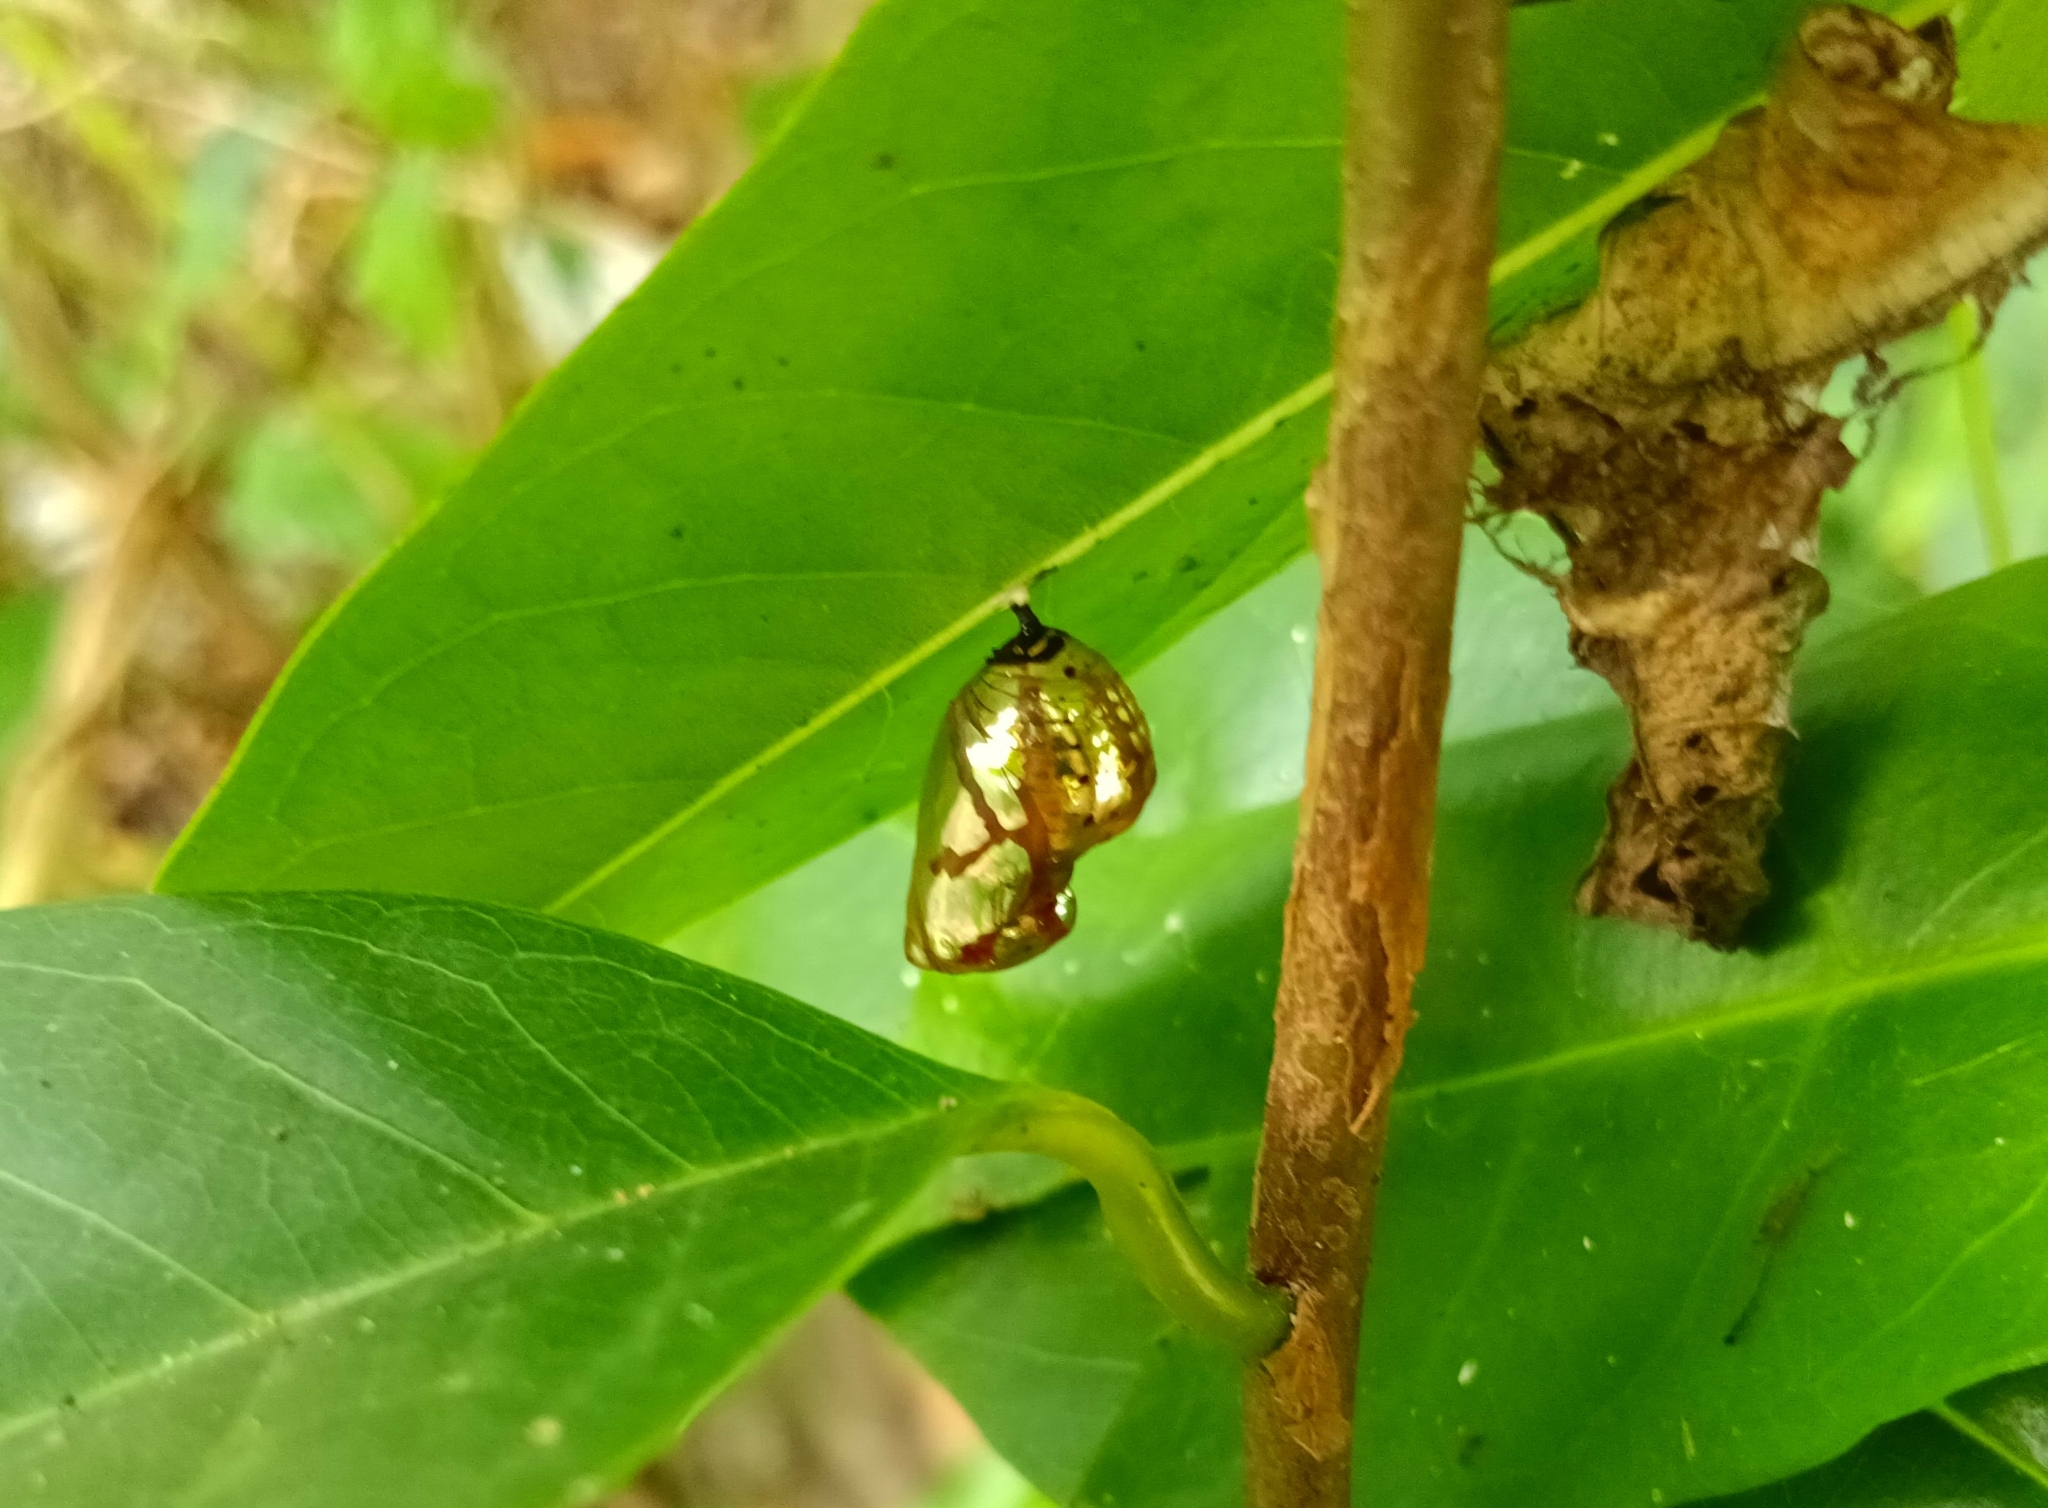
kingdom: Animalia
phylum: Arthropoda
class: Insecta
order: Lepidoptera
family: Nymphalidae
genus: Euploea
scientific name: Euploea core
